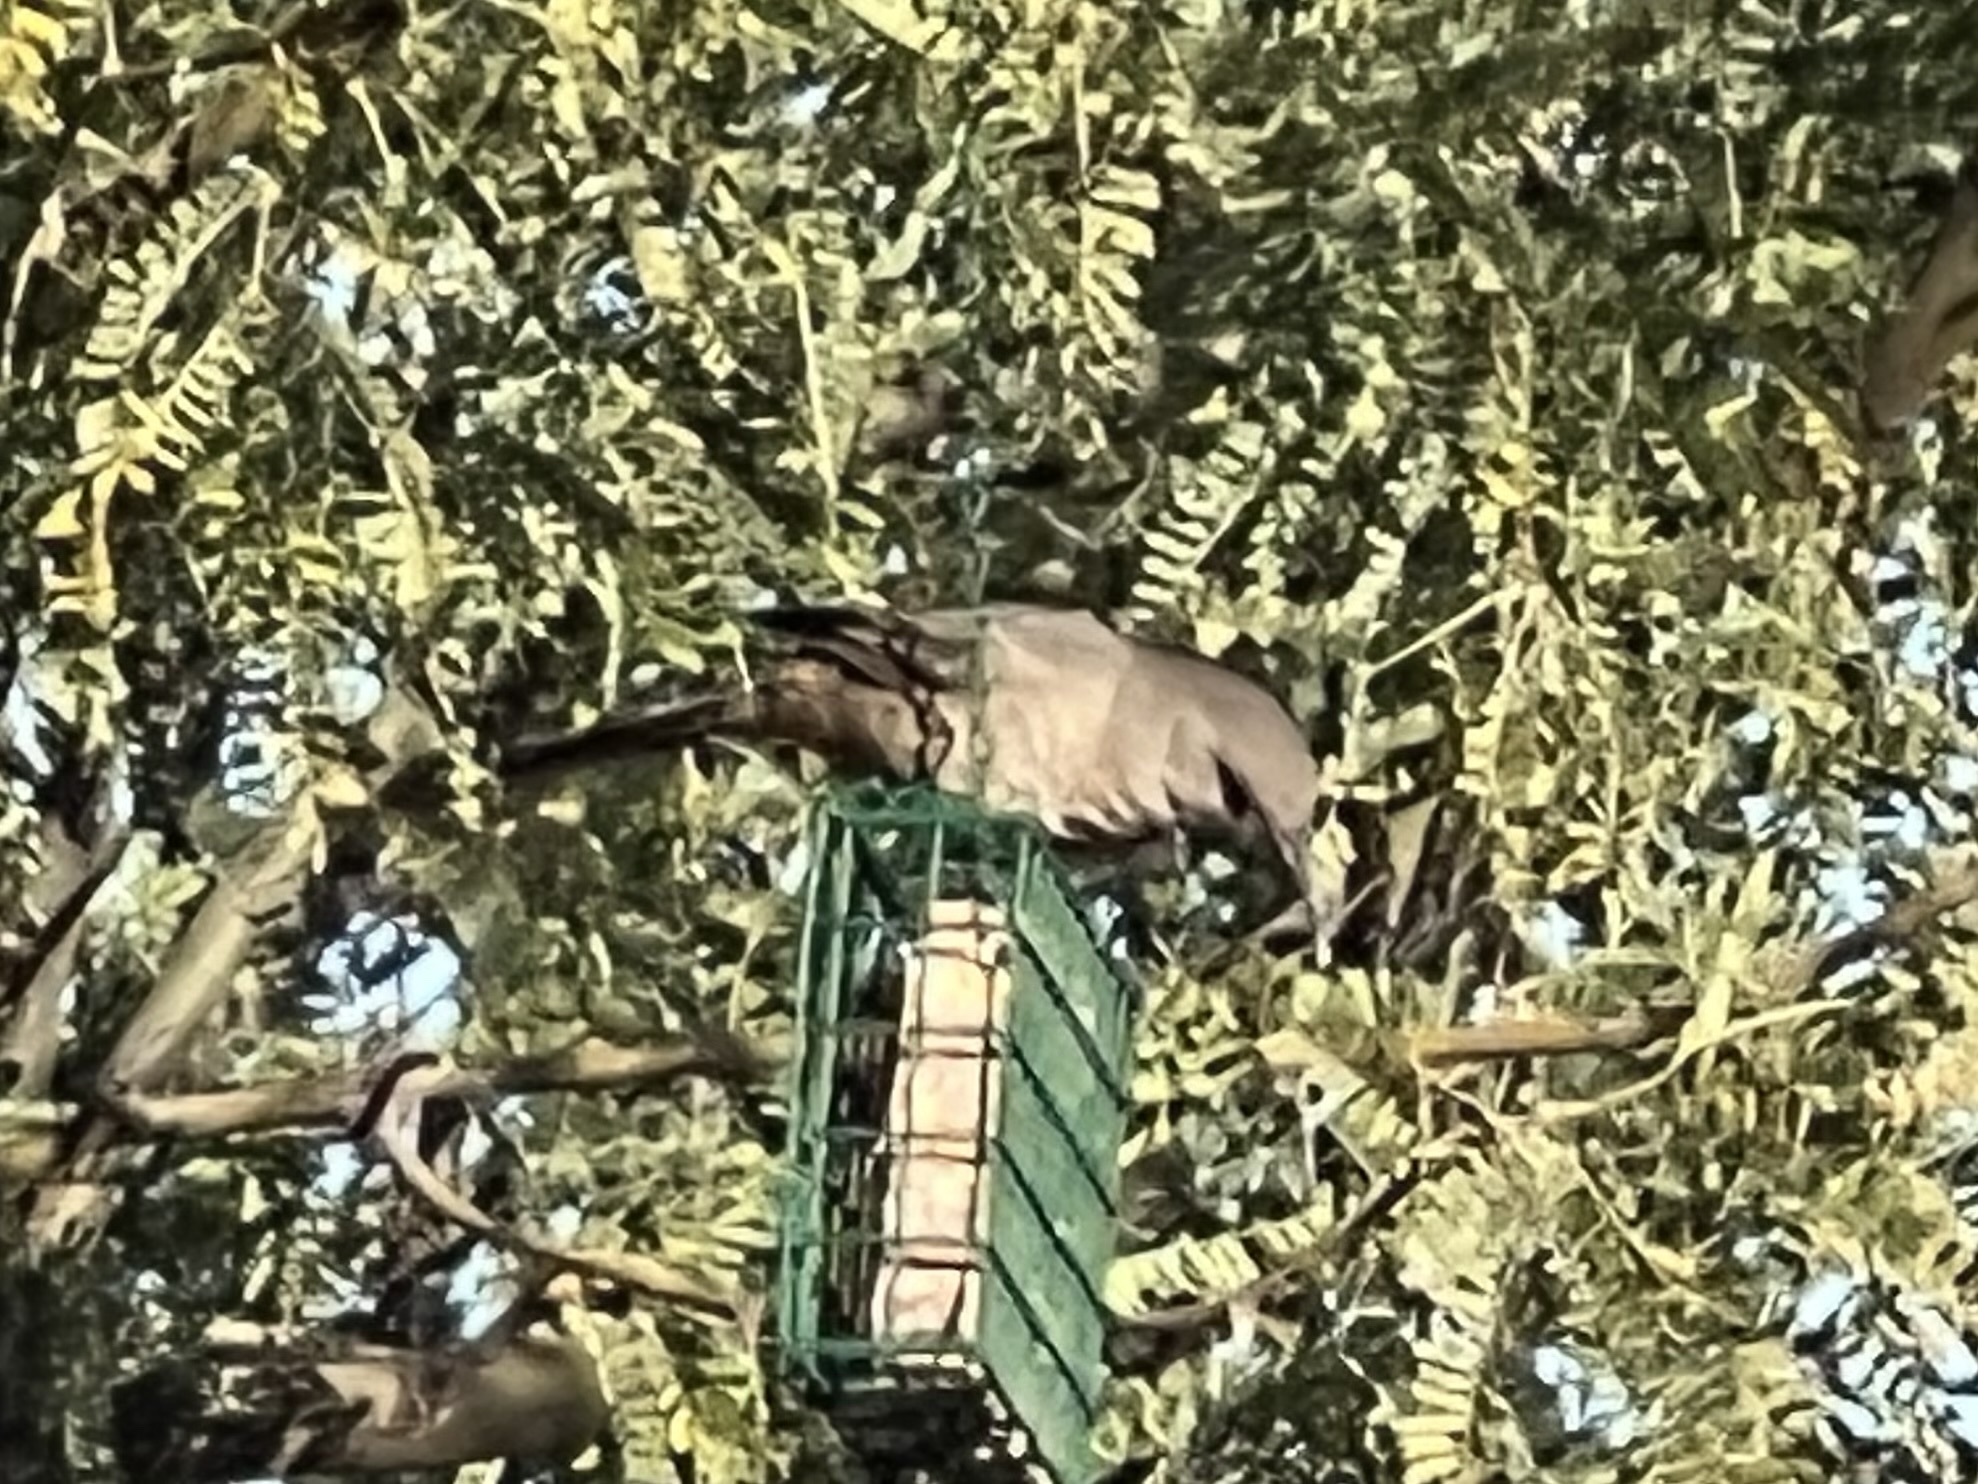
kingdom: Animalia
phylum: Chordata
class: Aves
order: Passeriformes
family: Mimidae
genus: Toxostoma
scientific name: Toxostoma curvirostre
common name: Curve-billed thrasher
